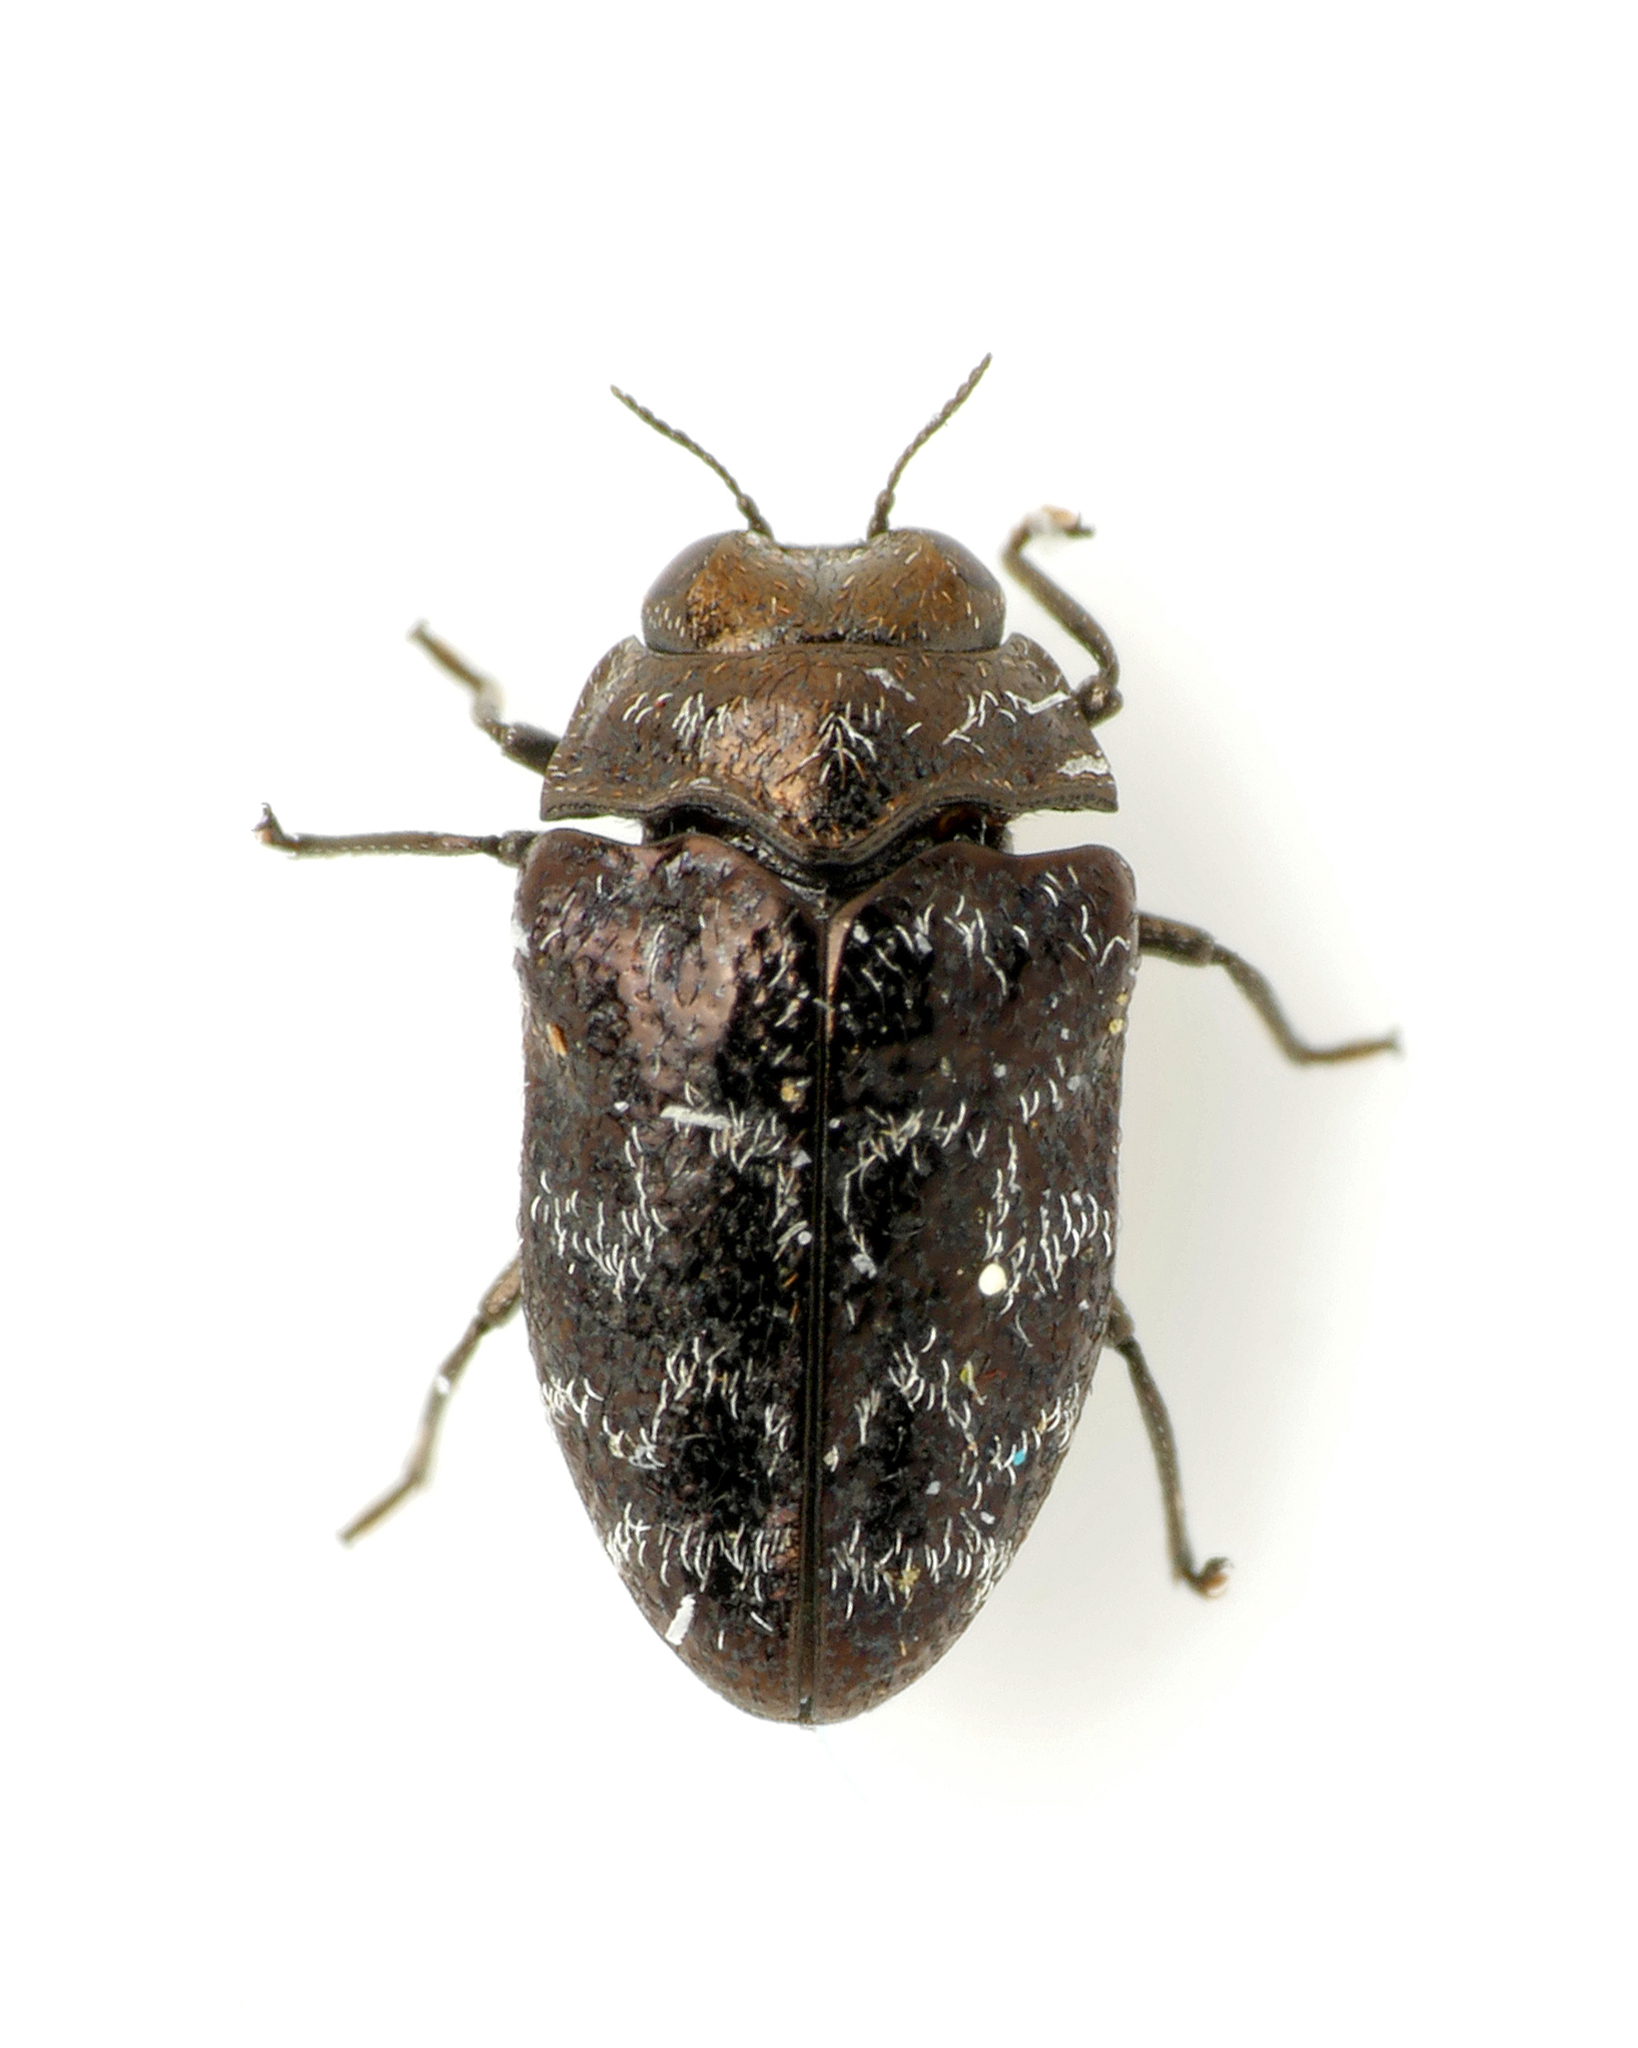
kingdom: Animalia
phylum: Arthropoda
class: Insecta
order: Coleoptera
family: Buprestidae
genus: Trachys
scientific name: Trachys minutus
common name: Metallic wood-boring beetle
